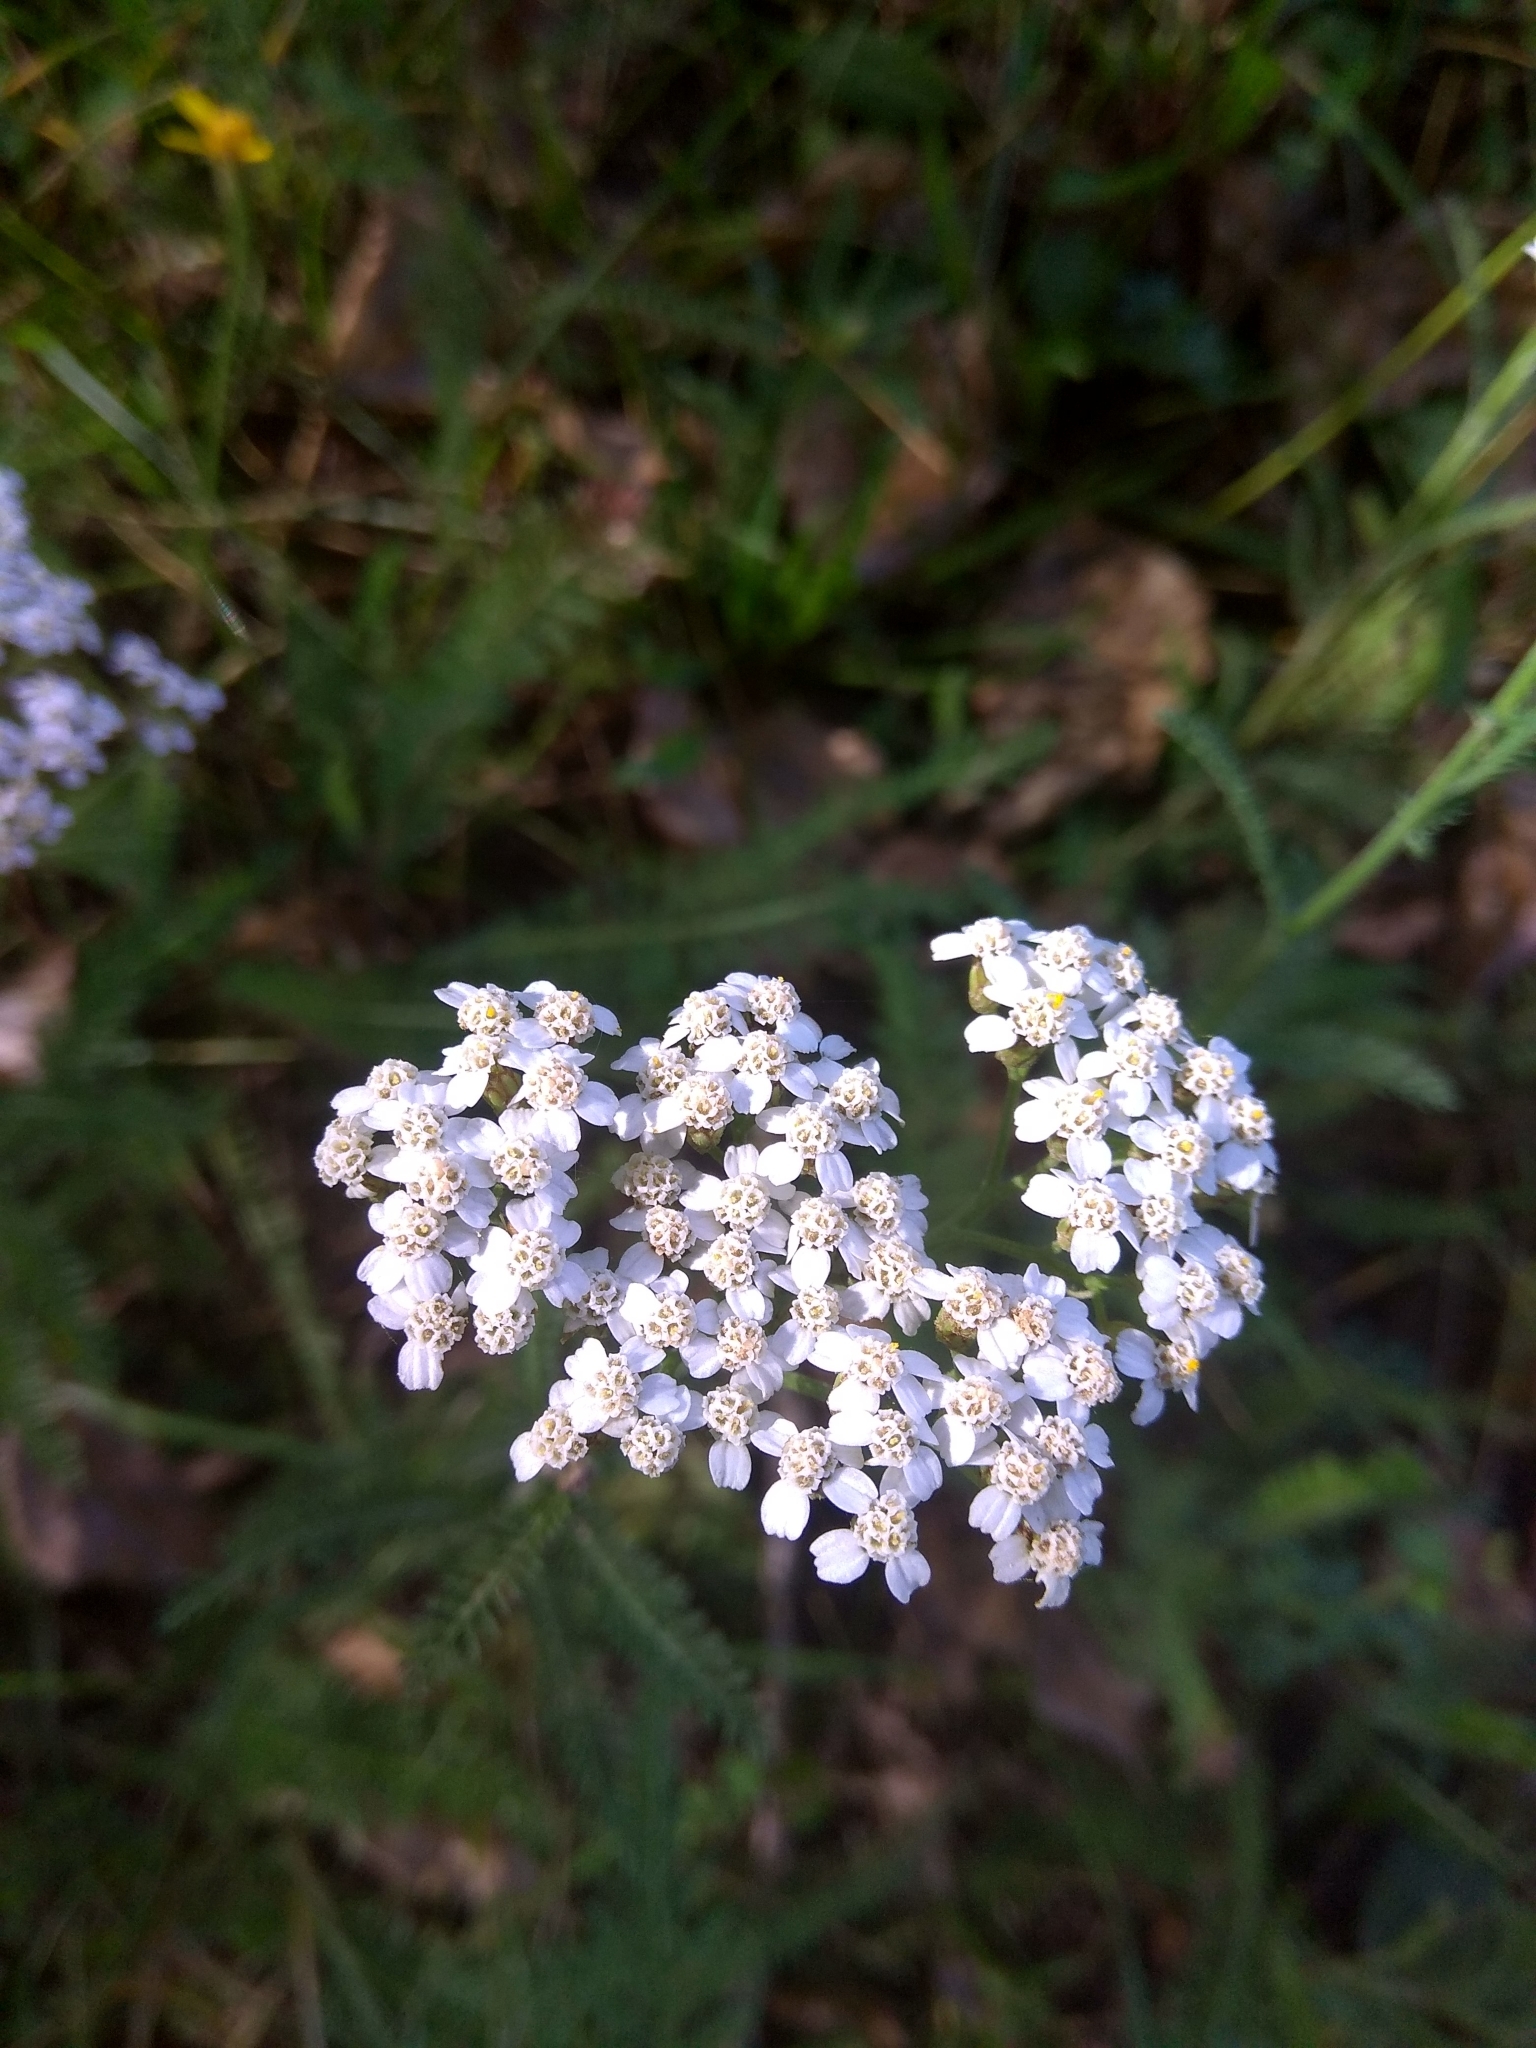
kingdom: Plantae
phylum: Tracheophyta
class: Magnoliopsida
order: Asterales
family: Asteraceae
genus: Achillea
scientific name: Achillea millefolium
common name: Yarrow
